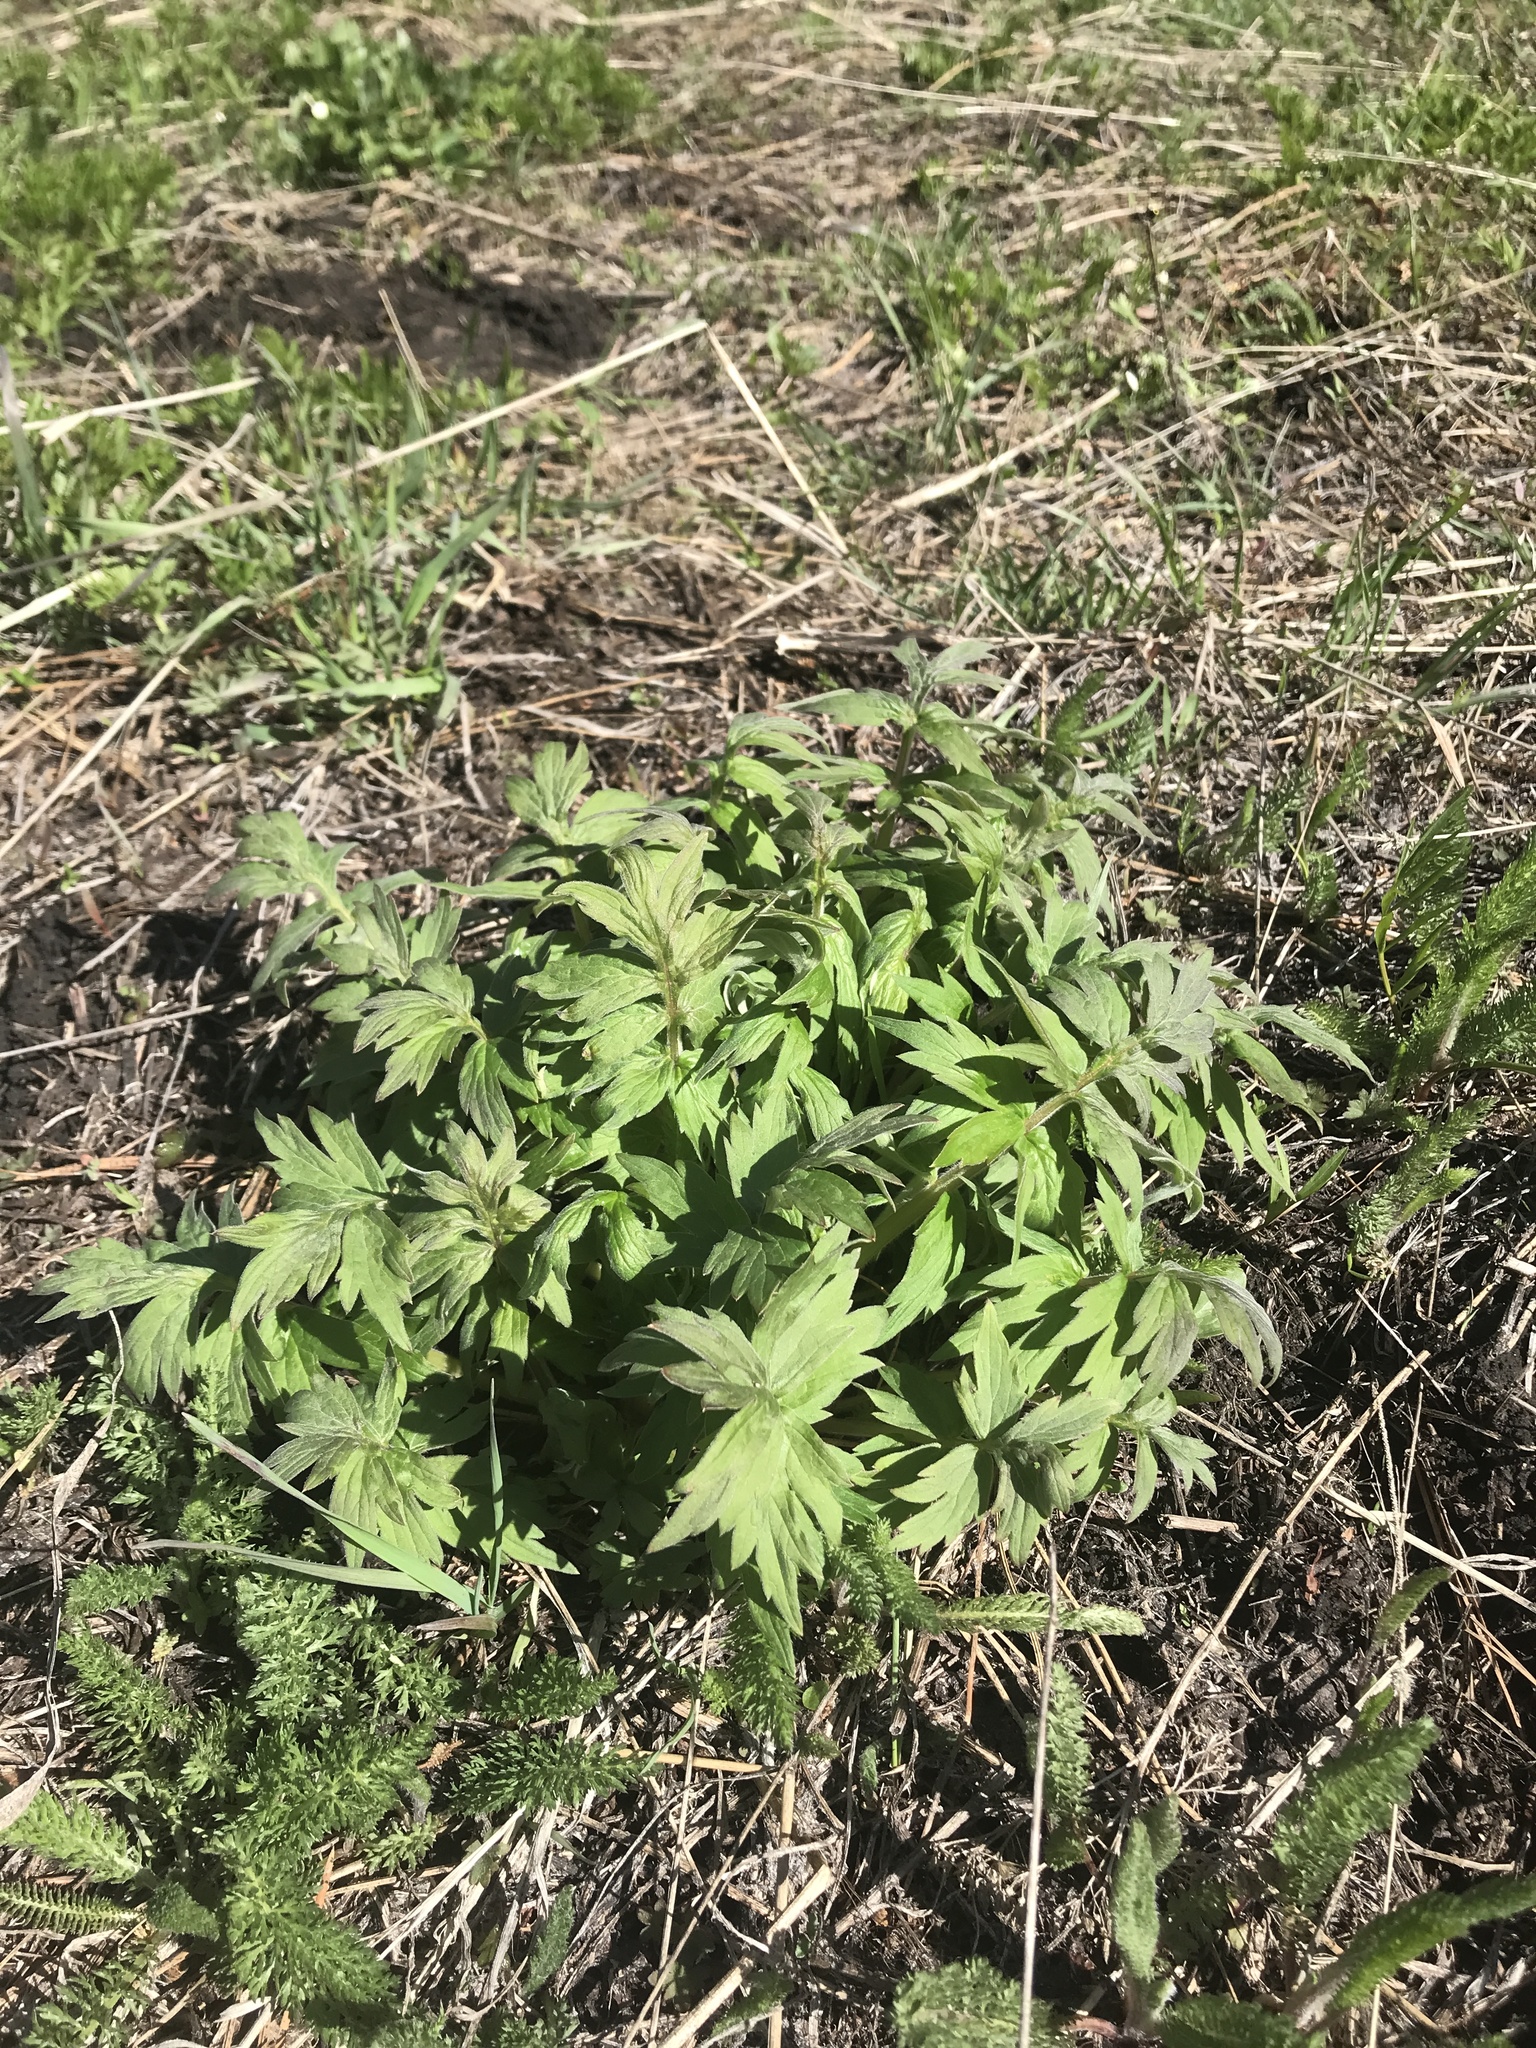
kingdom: Plantae
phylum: Tracheophyta
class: Magnoliopsida
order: Boraginales
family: Hydrophyllaceae
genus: Hydrophyllum
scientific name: Hydrophyllum fendleri
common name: Fendler's waterleaf
